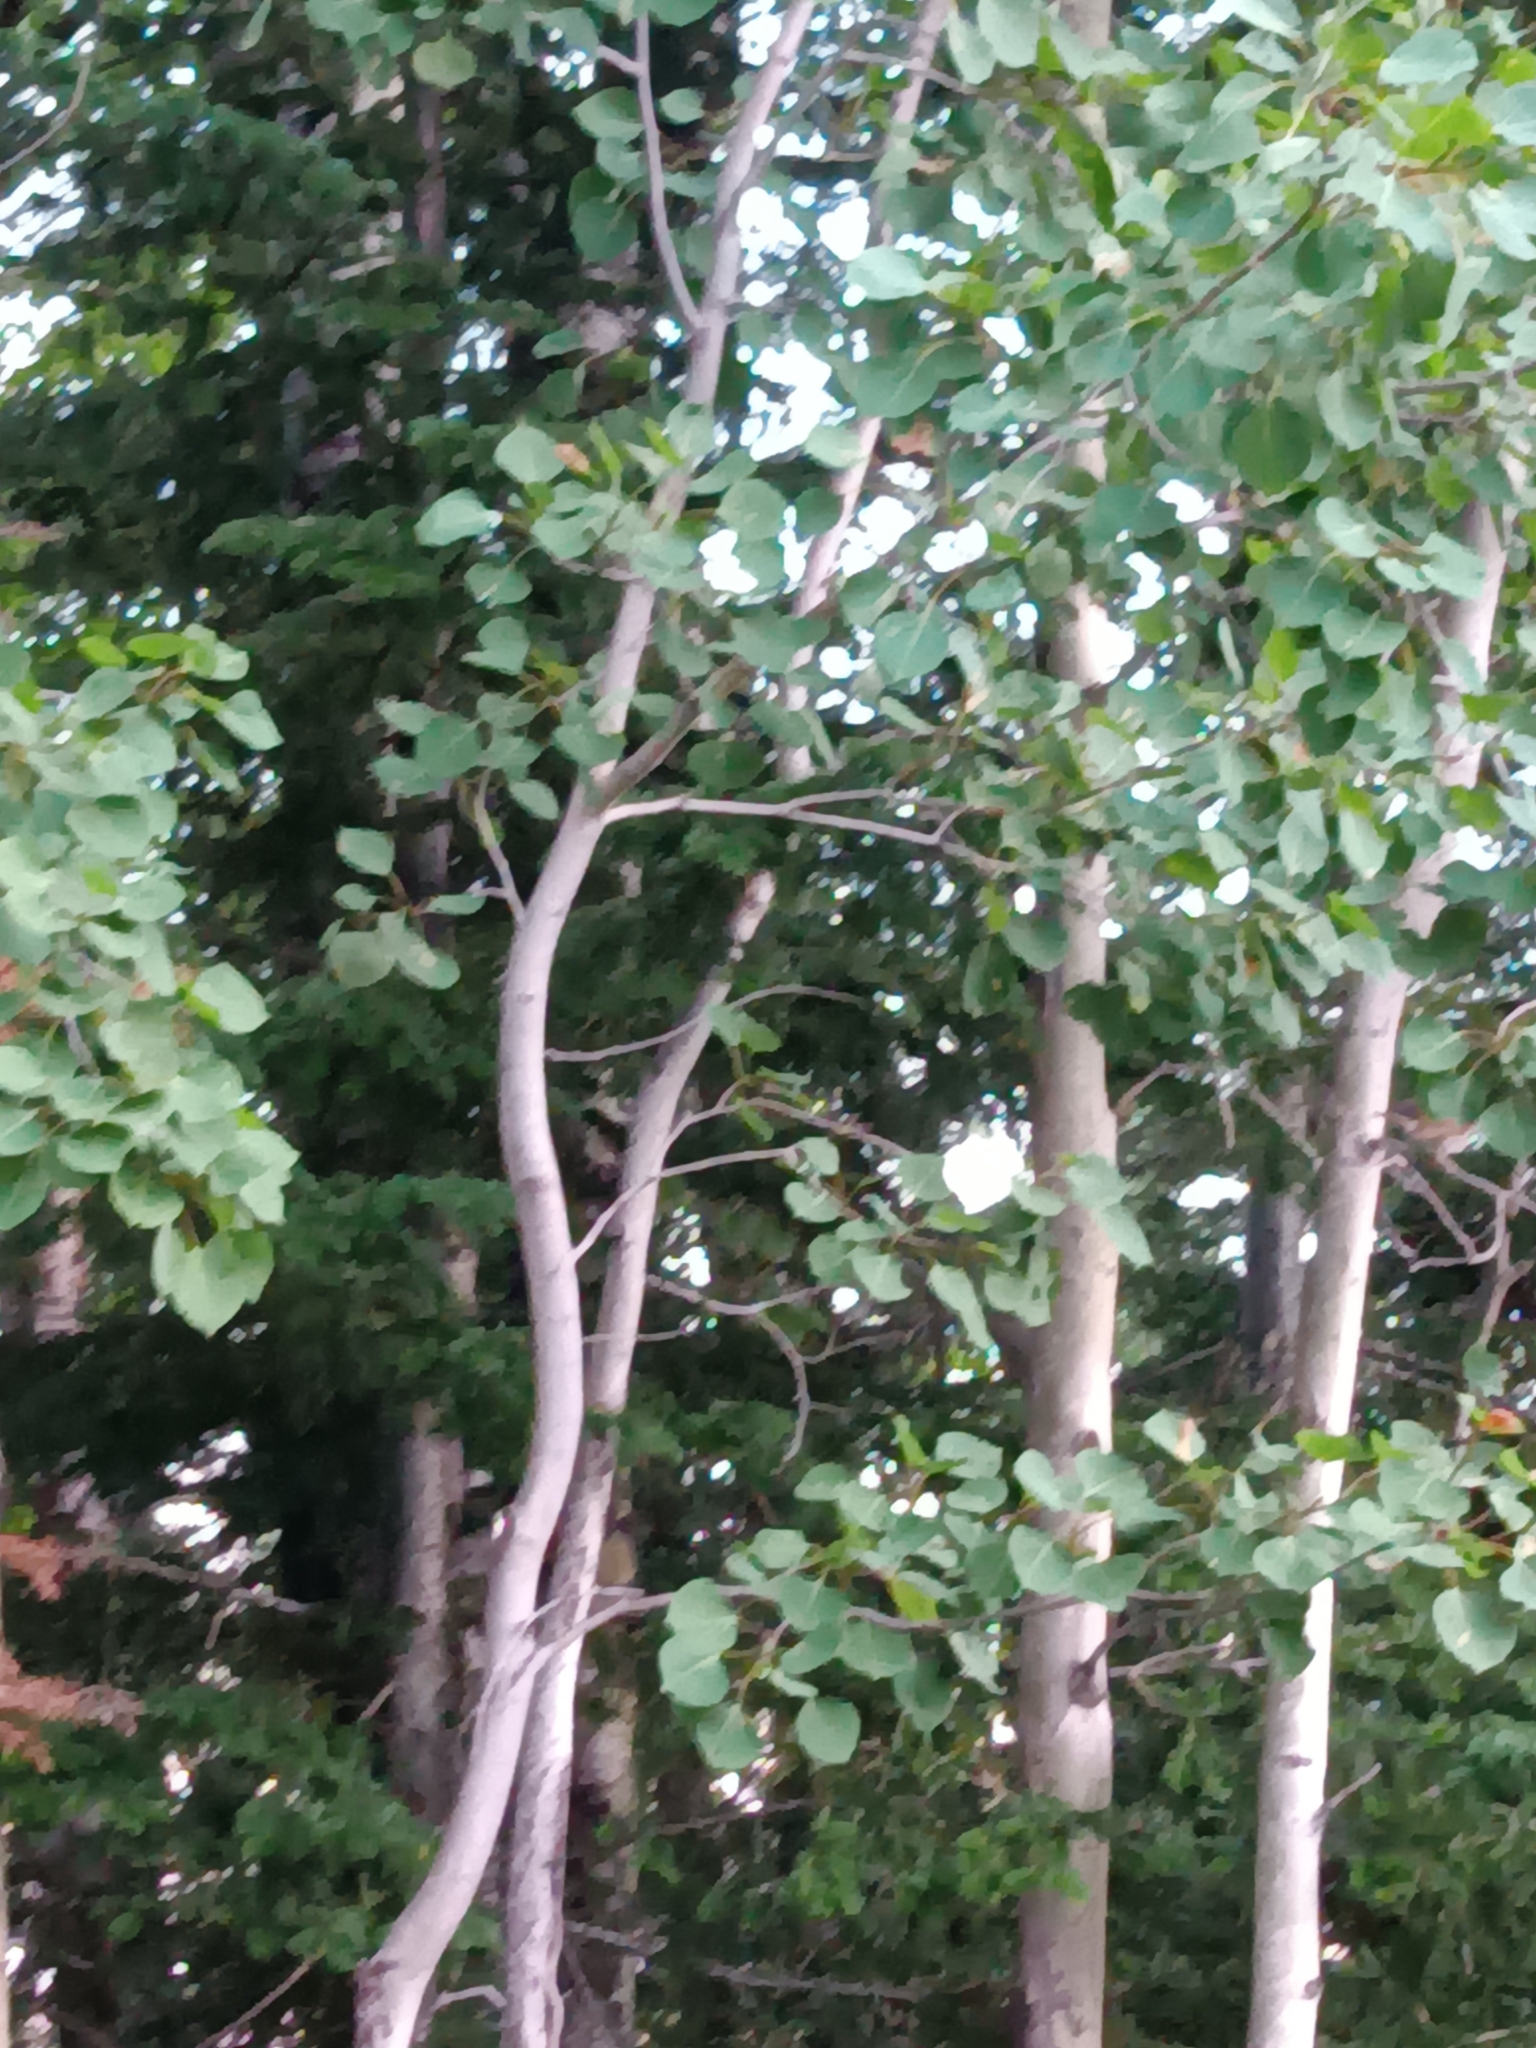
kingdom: Plantae
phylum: Tracheophyta
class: Magnoliopsida
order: Malpighiales
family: Salicaceae
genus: Populus
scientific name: Populus tremuloides
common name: Quaking aspen
